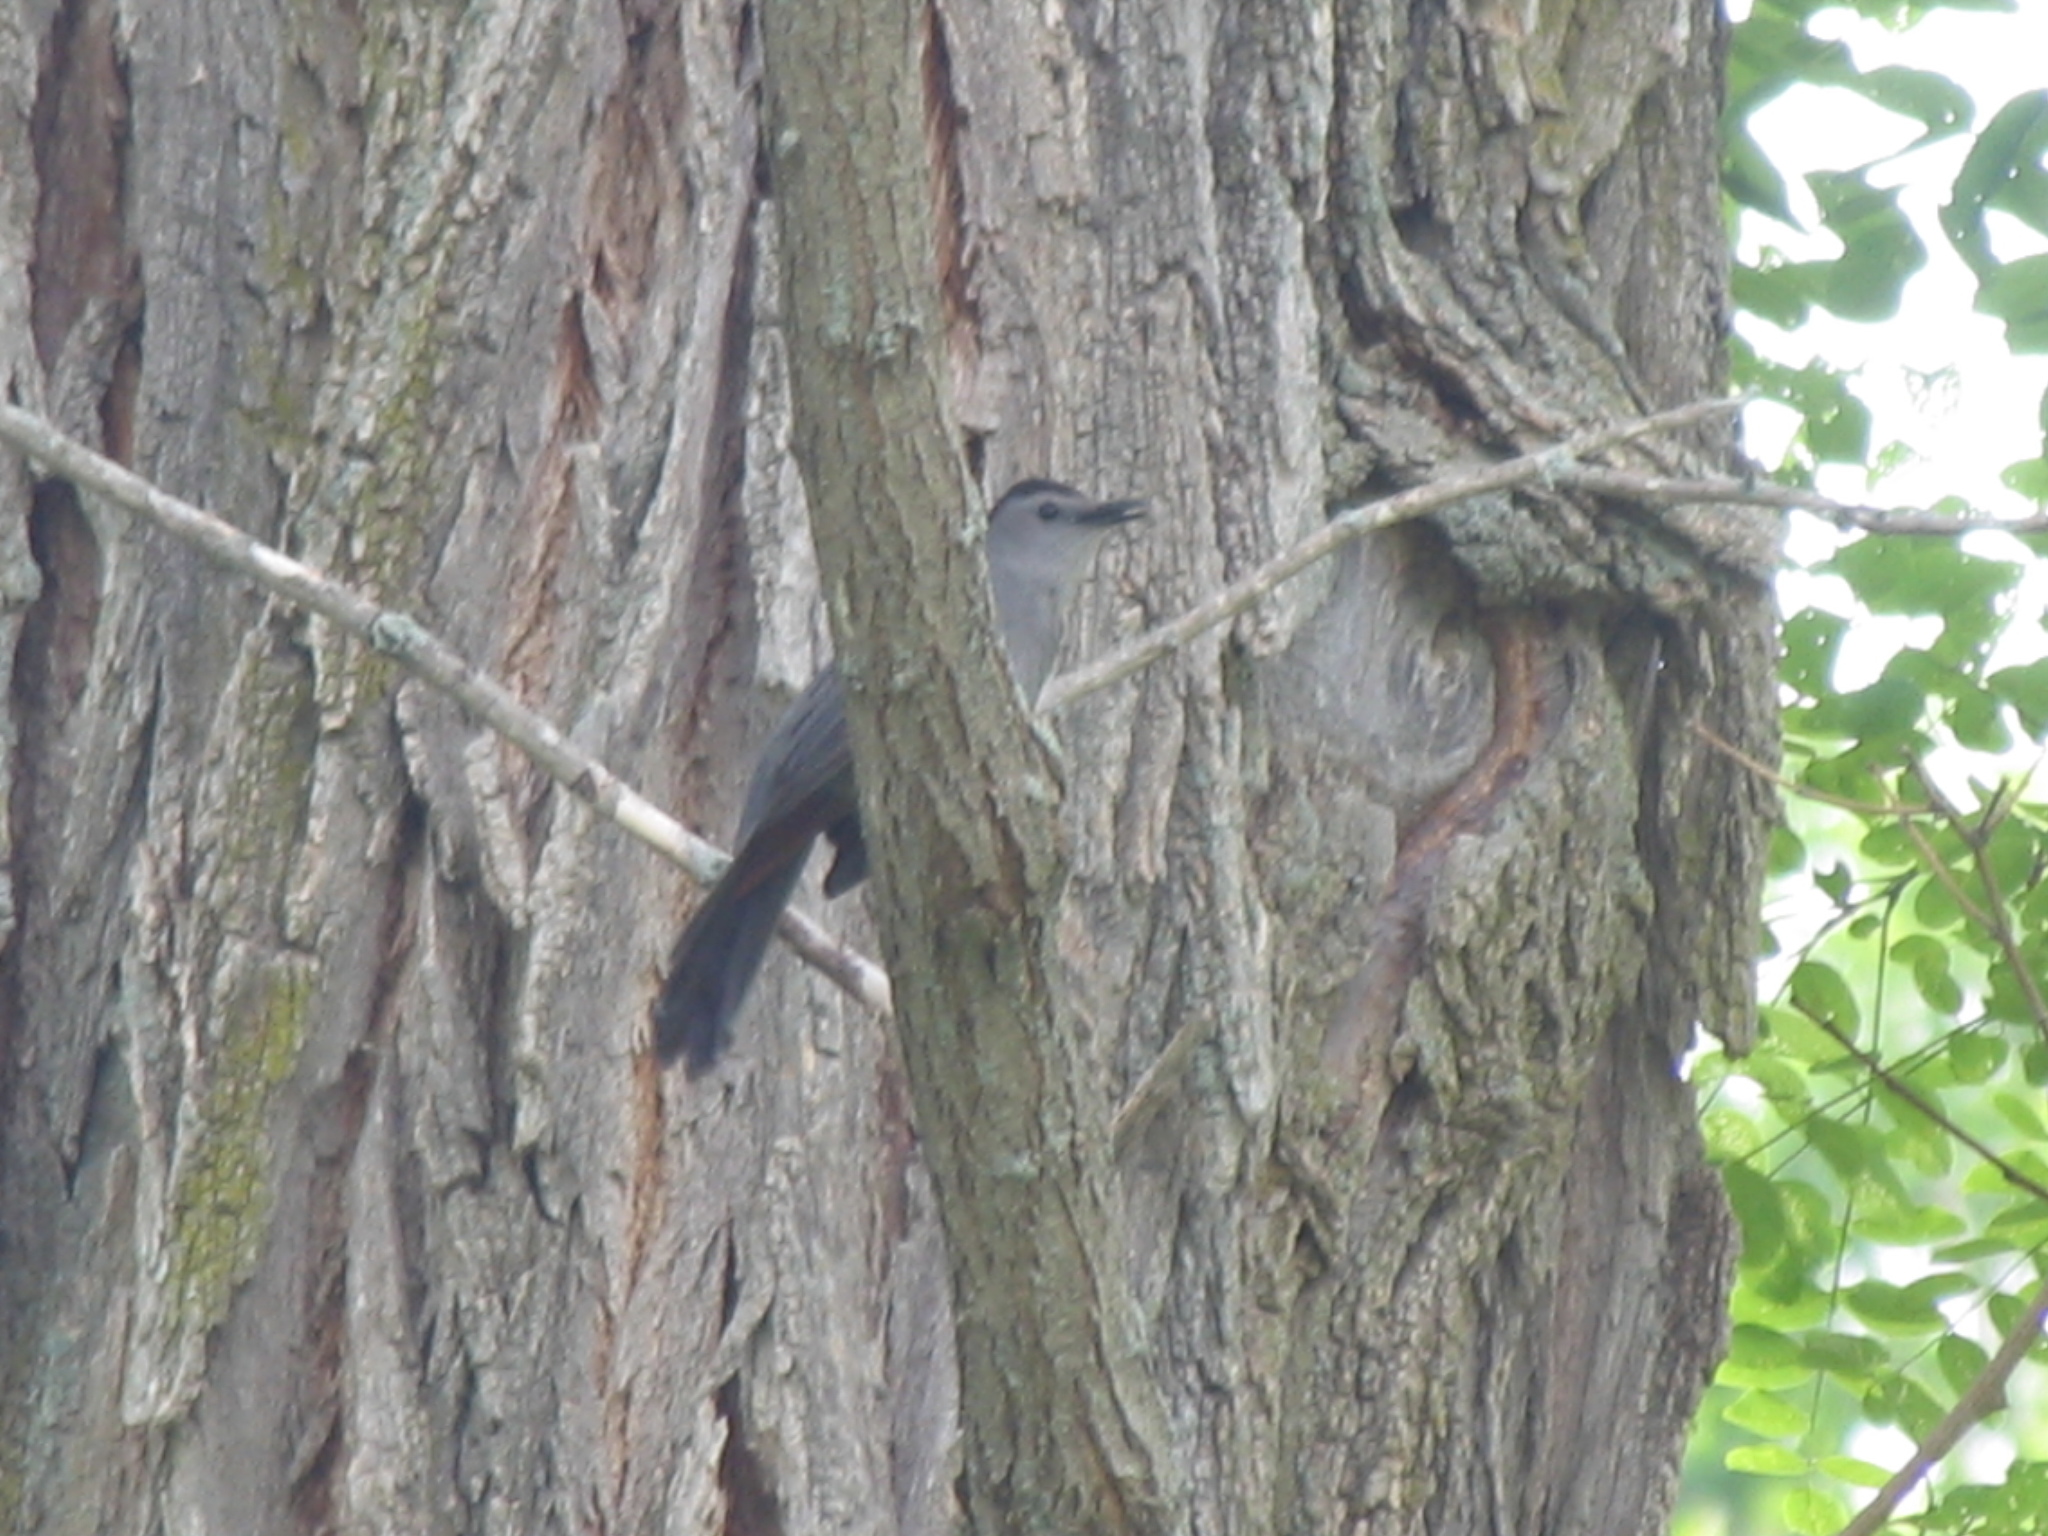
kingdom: Animalia
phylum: Chordata
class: Aves
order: Passeriformes
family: Mimidae
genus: Dumetella
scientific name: Dumetella carolinensis
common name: Gray catbird
